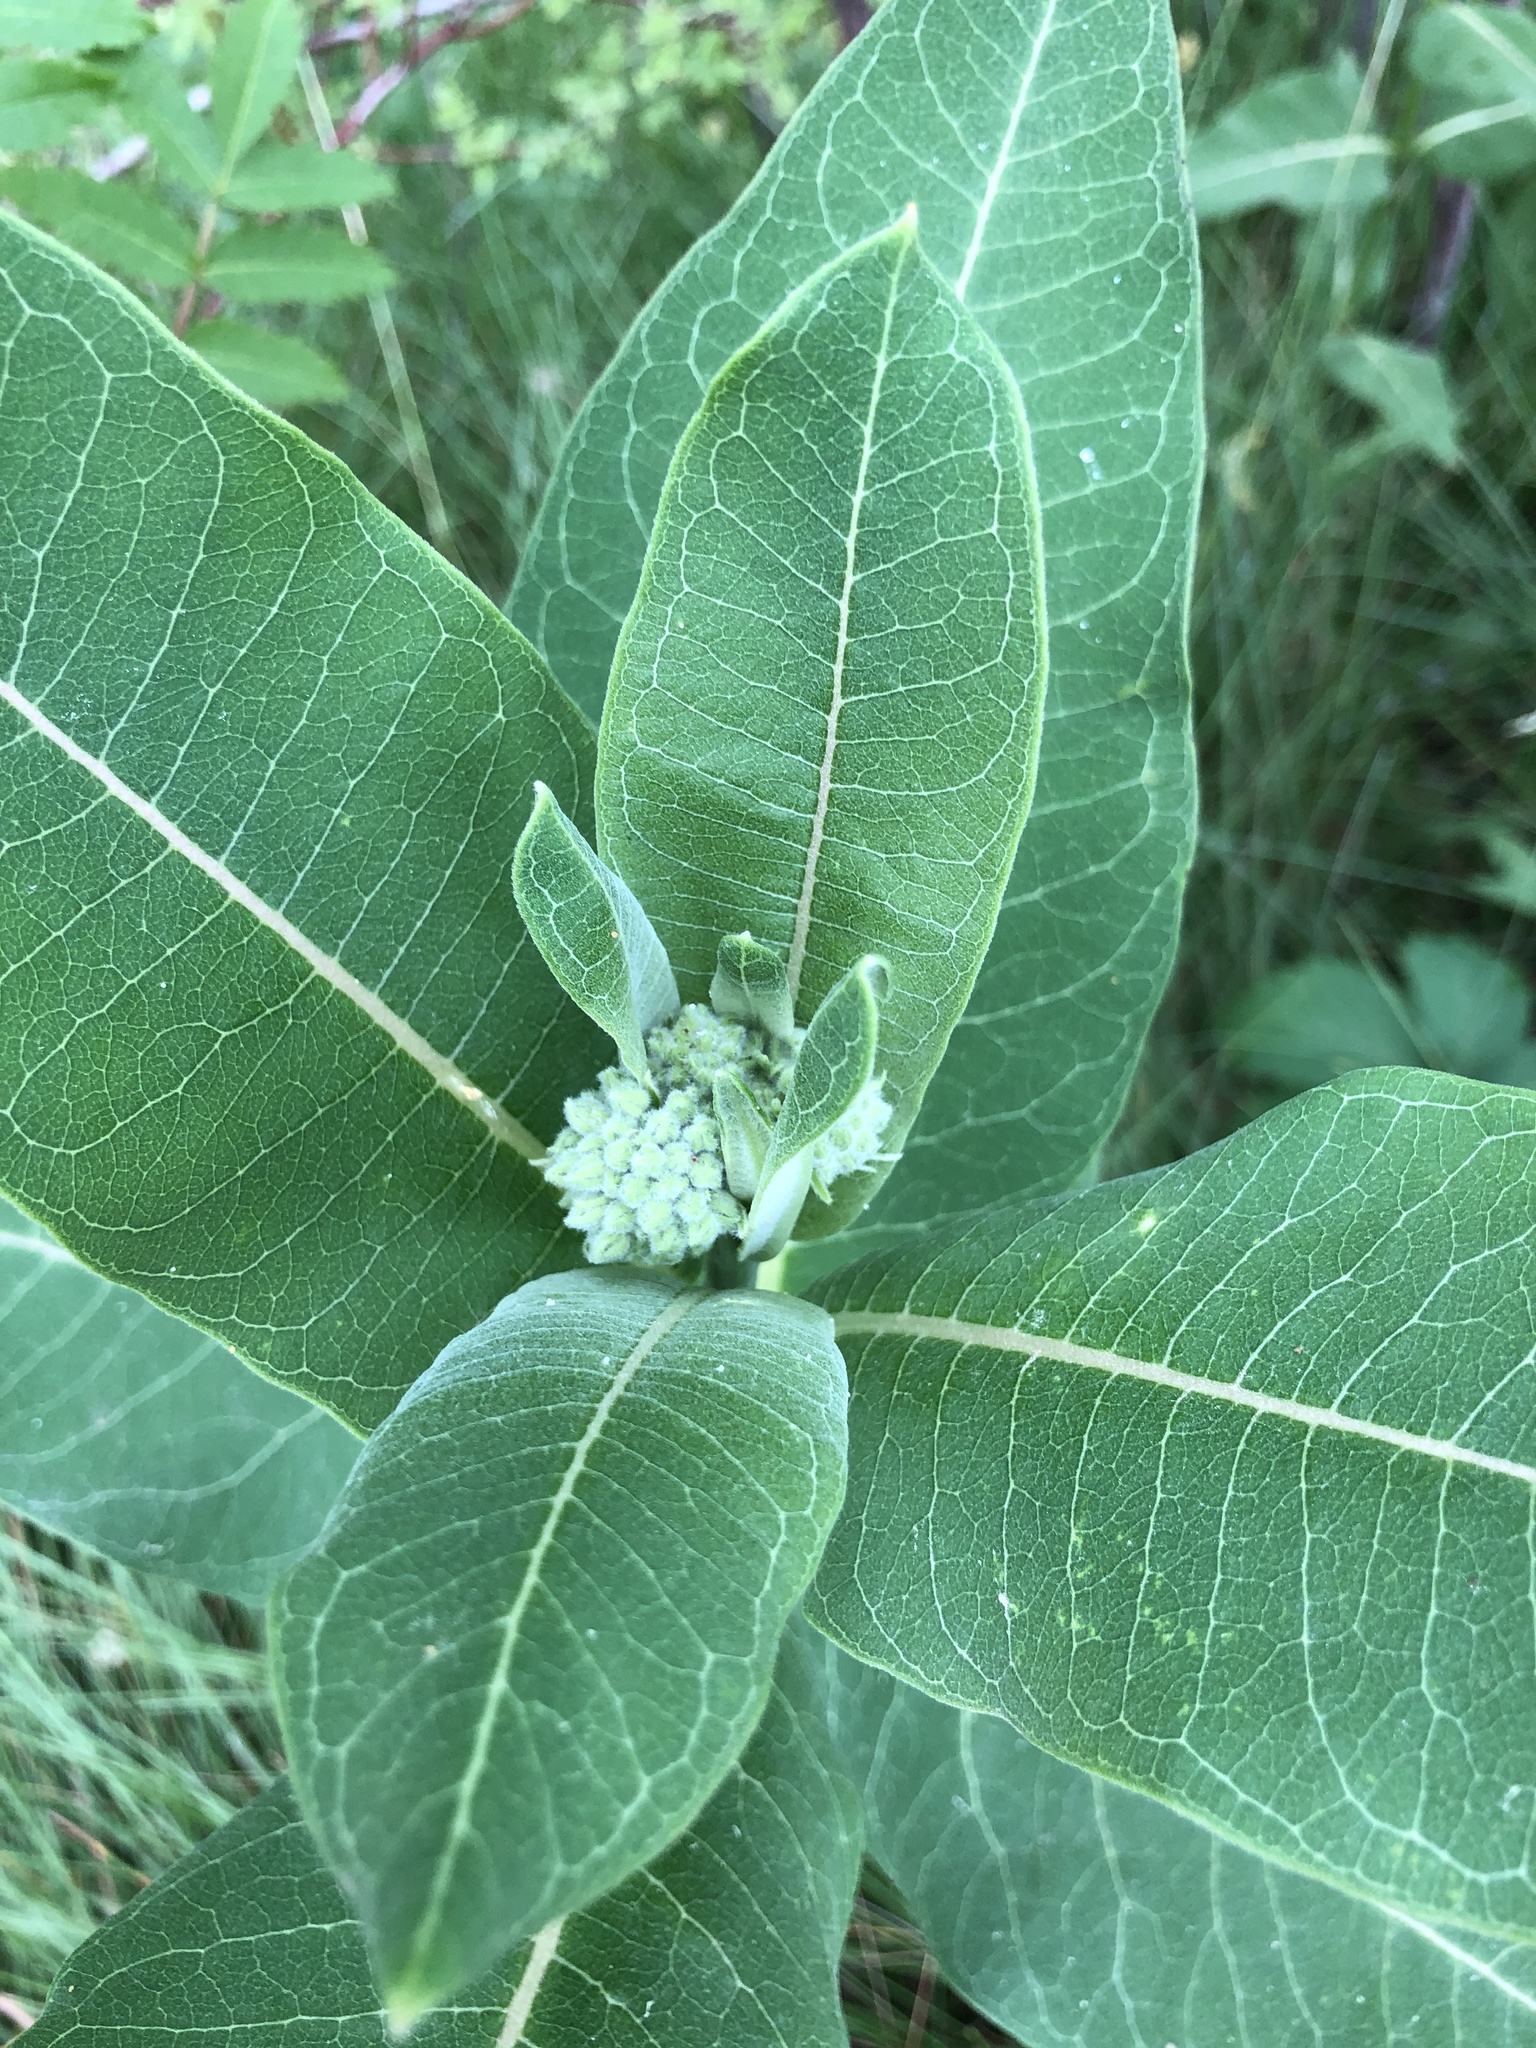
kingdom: Plantae
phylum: Tracheophyta
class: Magnoliopsida
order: Gentianales
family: Apocynaceae
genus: Asclepias
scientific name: Asclepias syriaca
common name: Common milkweed
